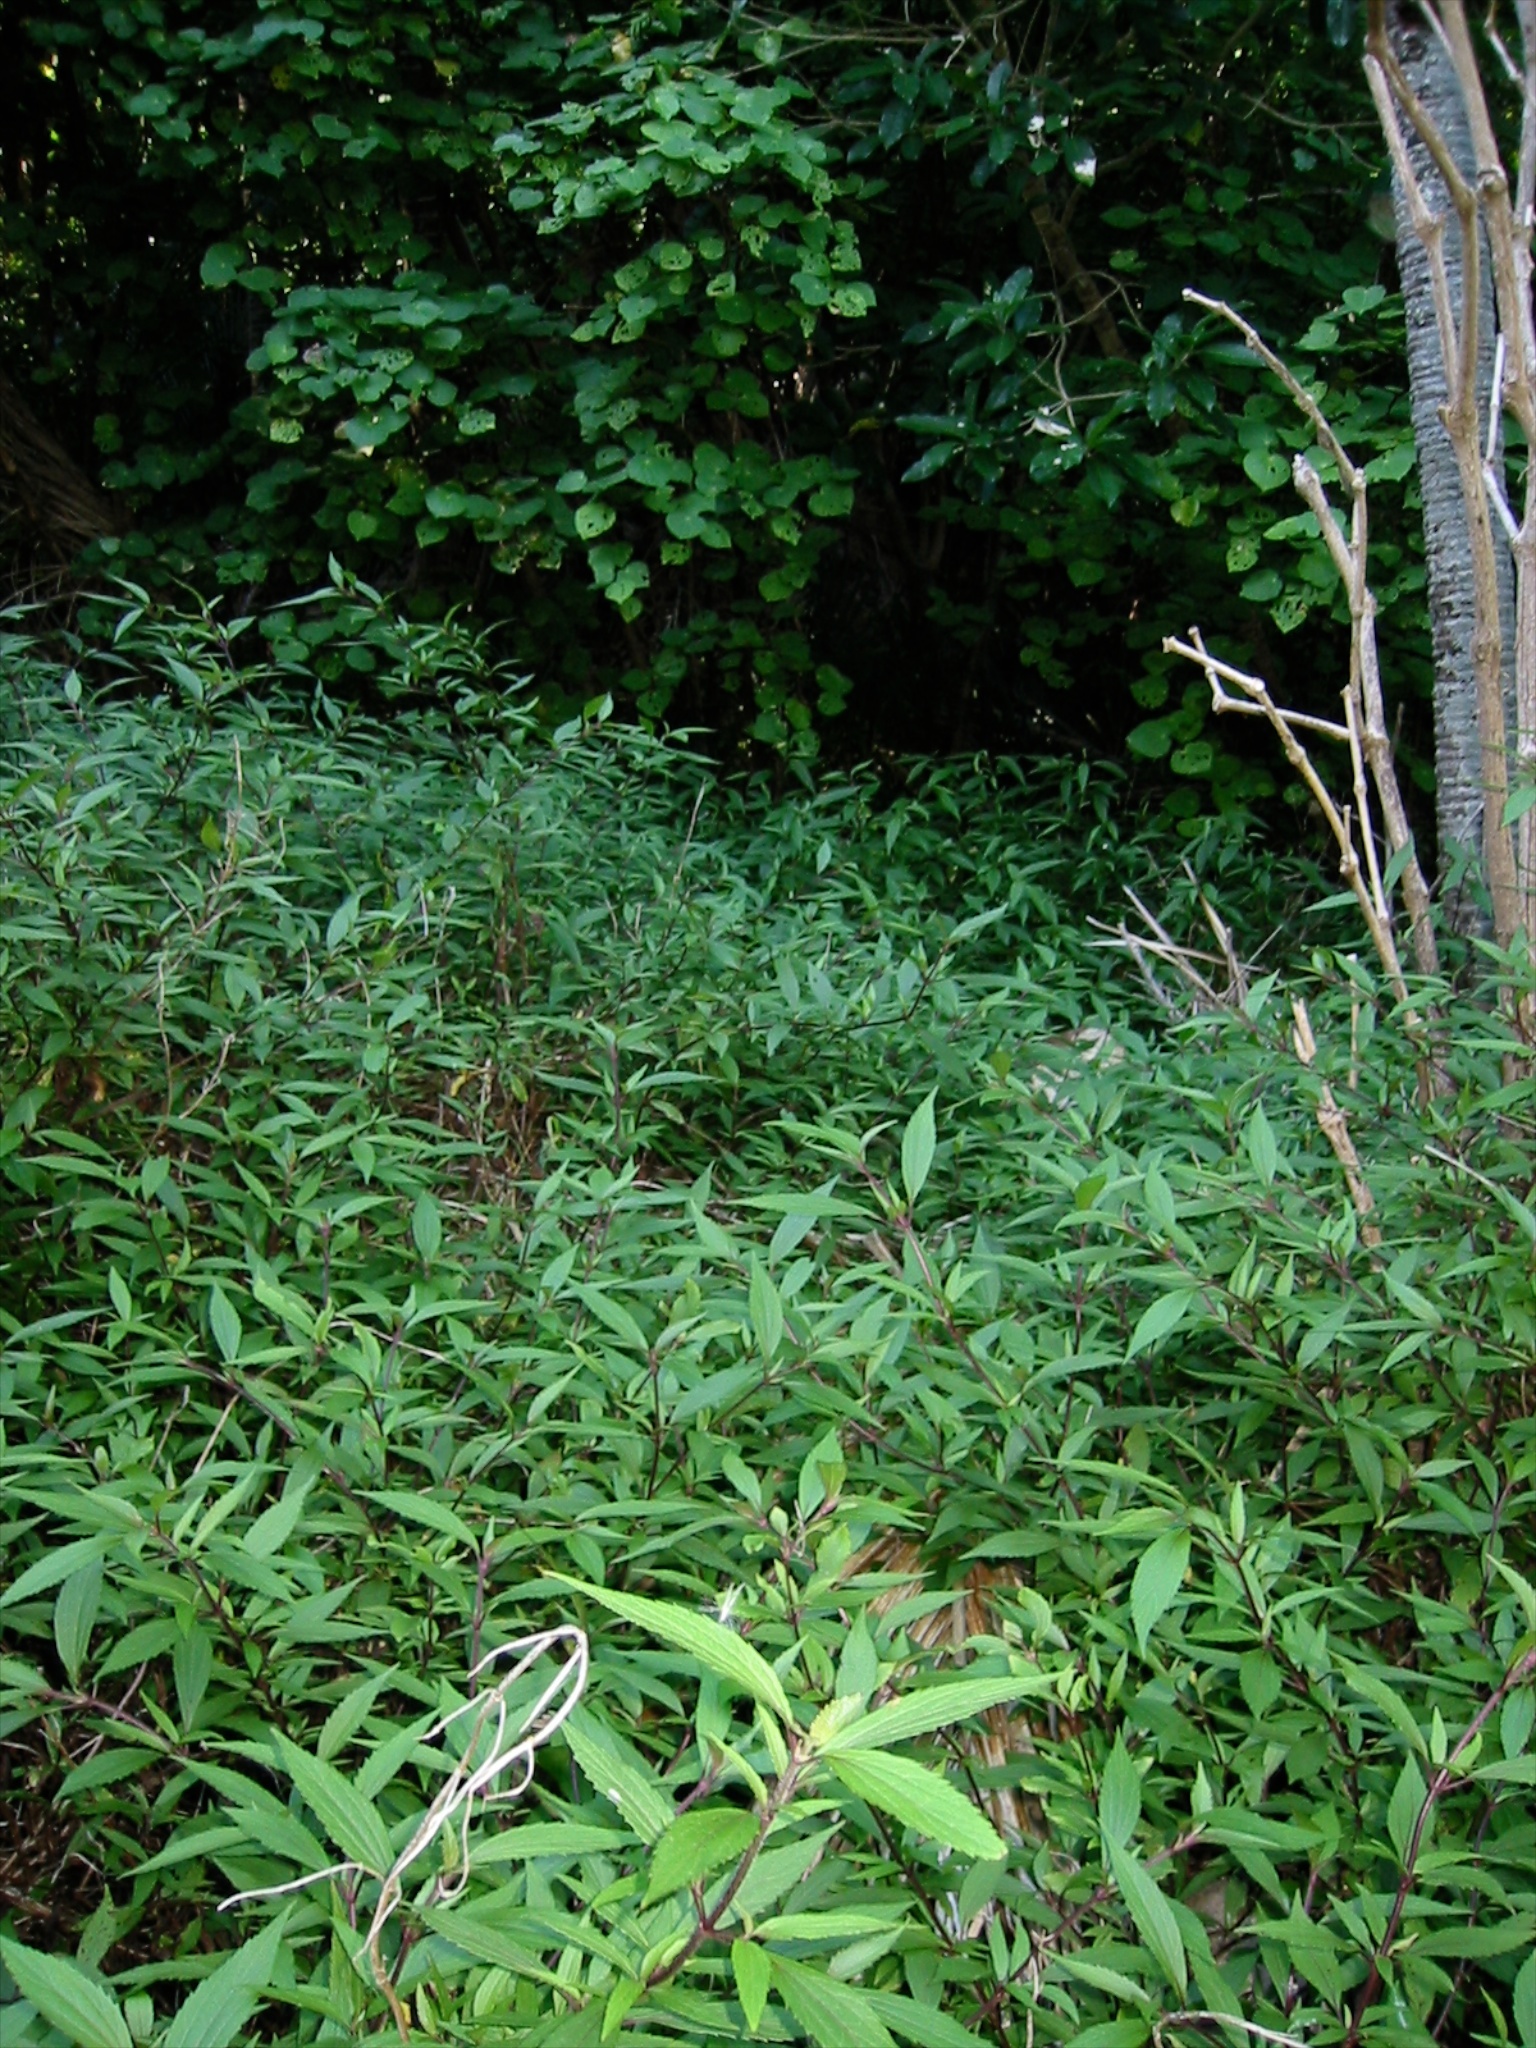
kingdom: Plantae
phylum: Tracheophyta
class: Magnoliopsida
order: Asterales
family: Asteraceae
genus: Ageratina
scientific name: Ageratina riparia
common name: Creeping croftonweed
